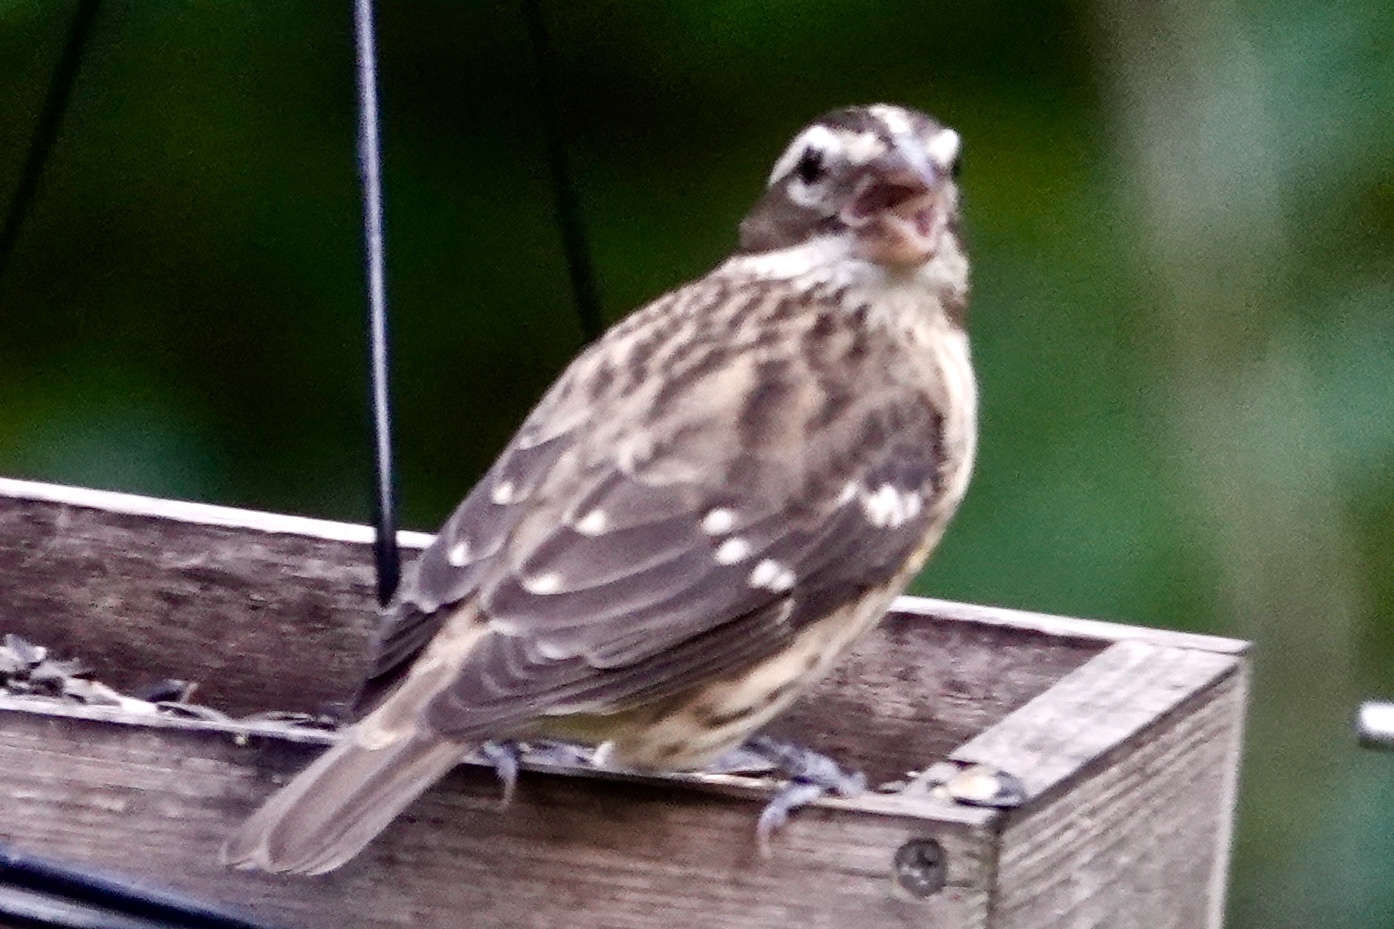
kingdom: Animalia
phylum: Chordata
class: Aves
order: Passeriformes
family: Cardinalidae
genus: Pheucticus
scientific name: Pheucticus ludovicianus
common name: Rose-breasted grosbeak
